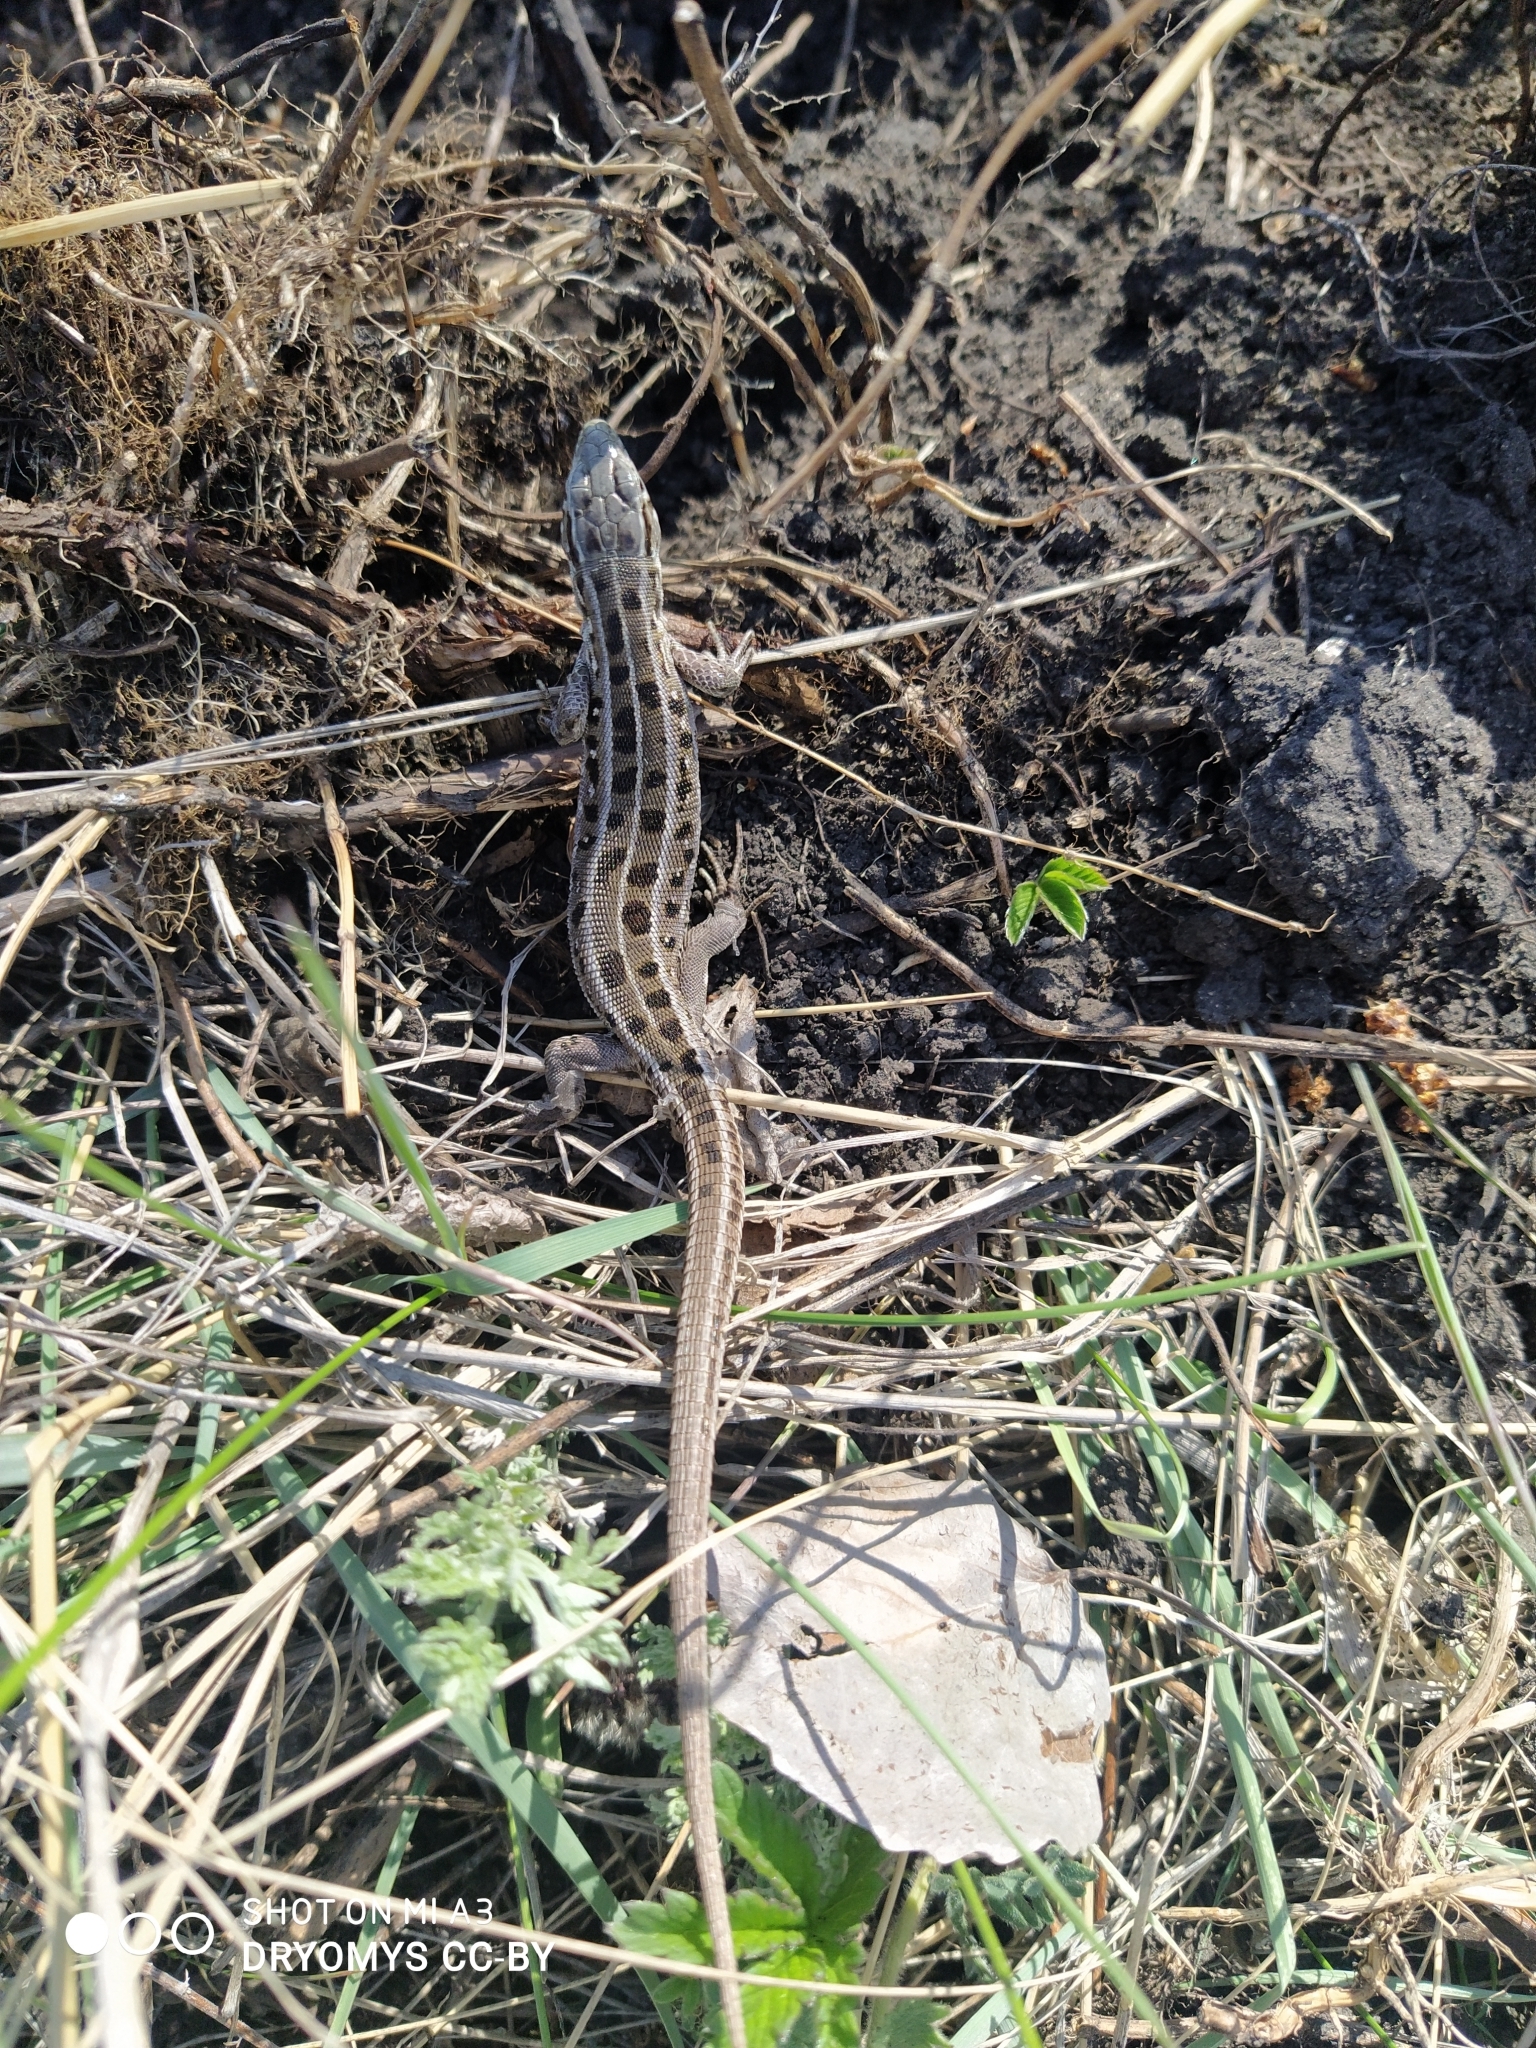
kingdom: Animalia
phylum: Chordata
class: Squamata
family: Lacertidae
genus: Lacerta
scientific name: Lacerta agilis
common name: Sand lizard
